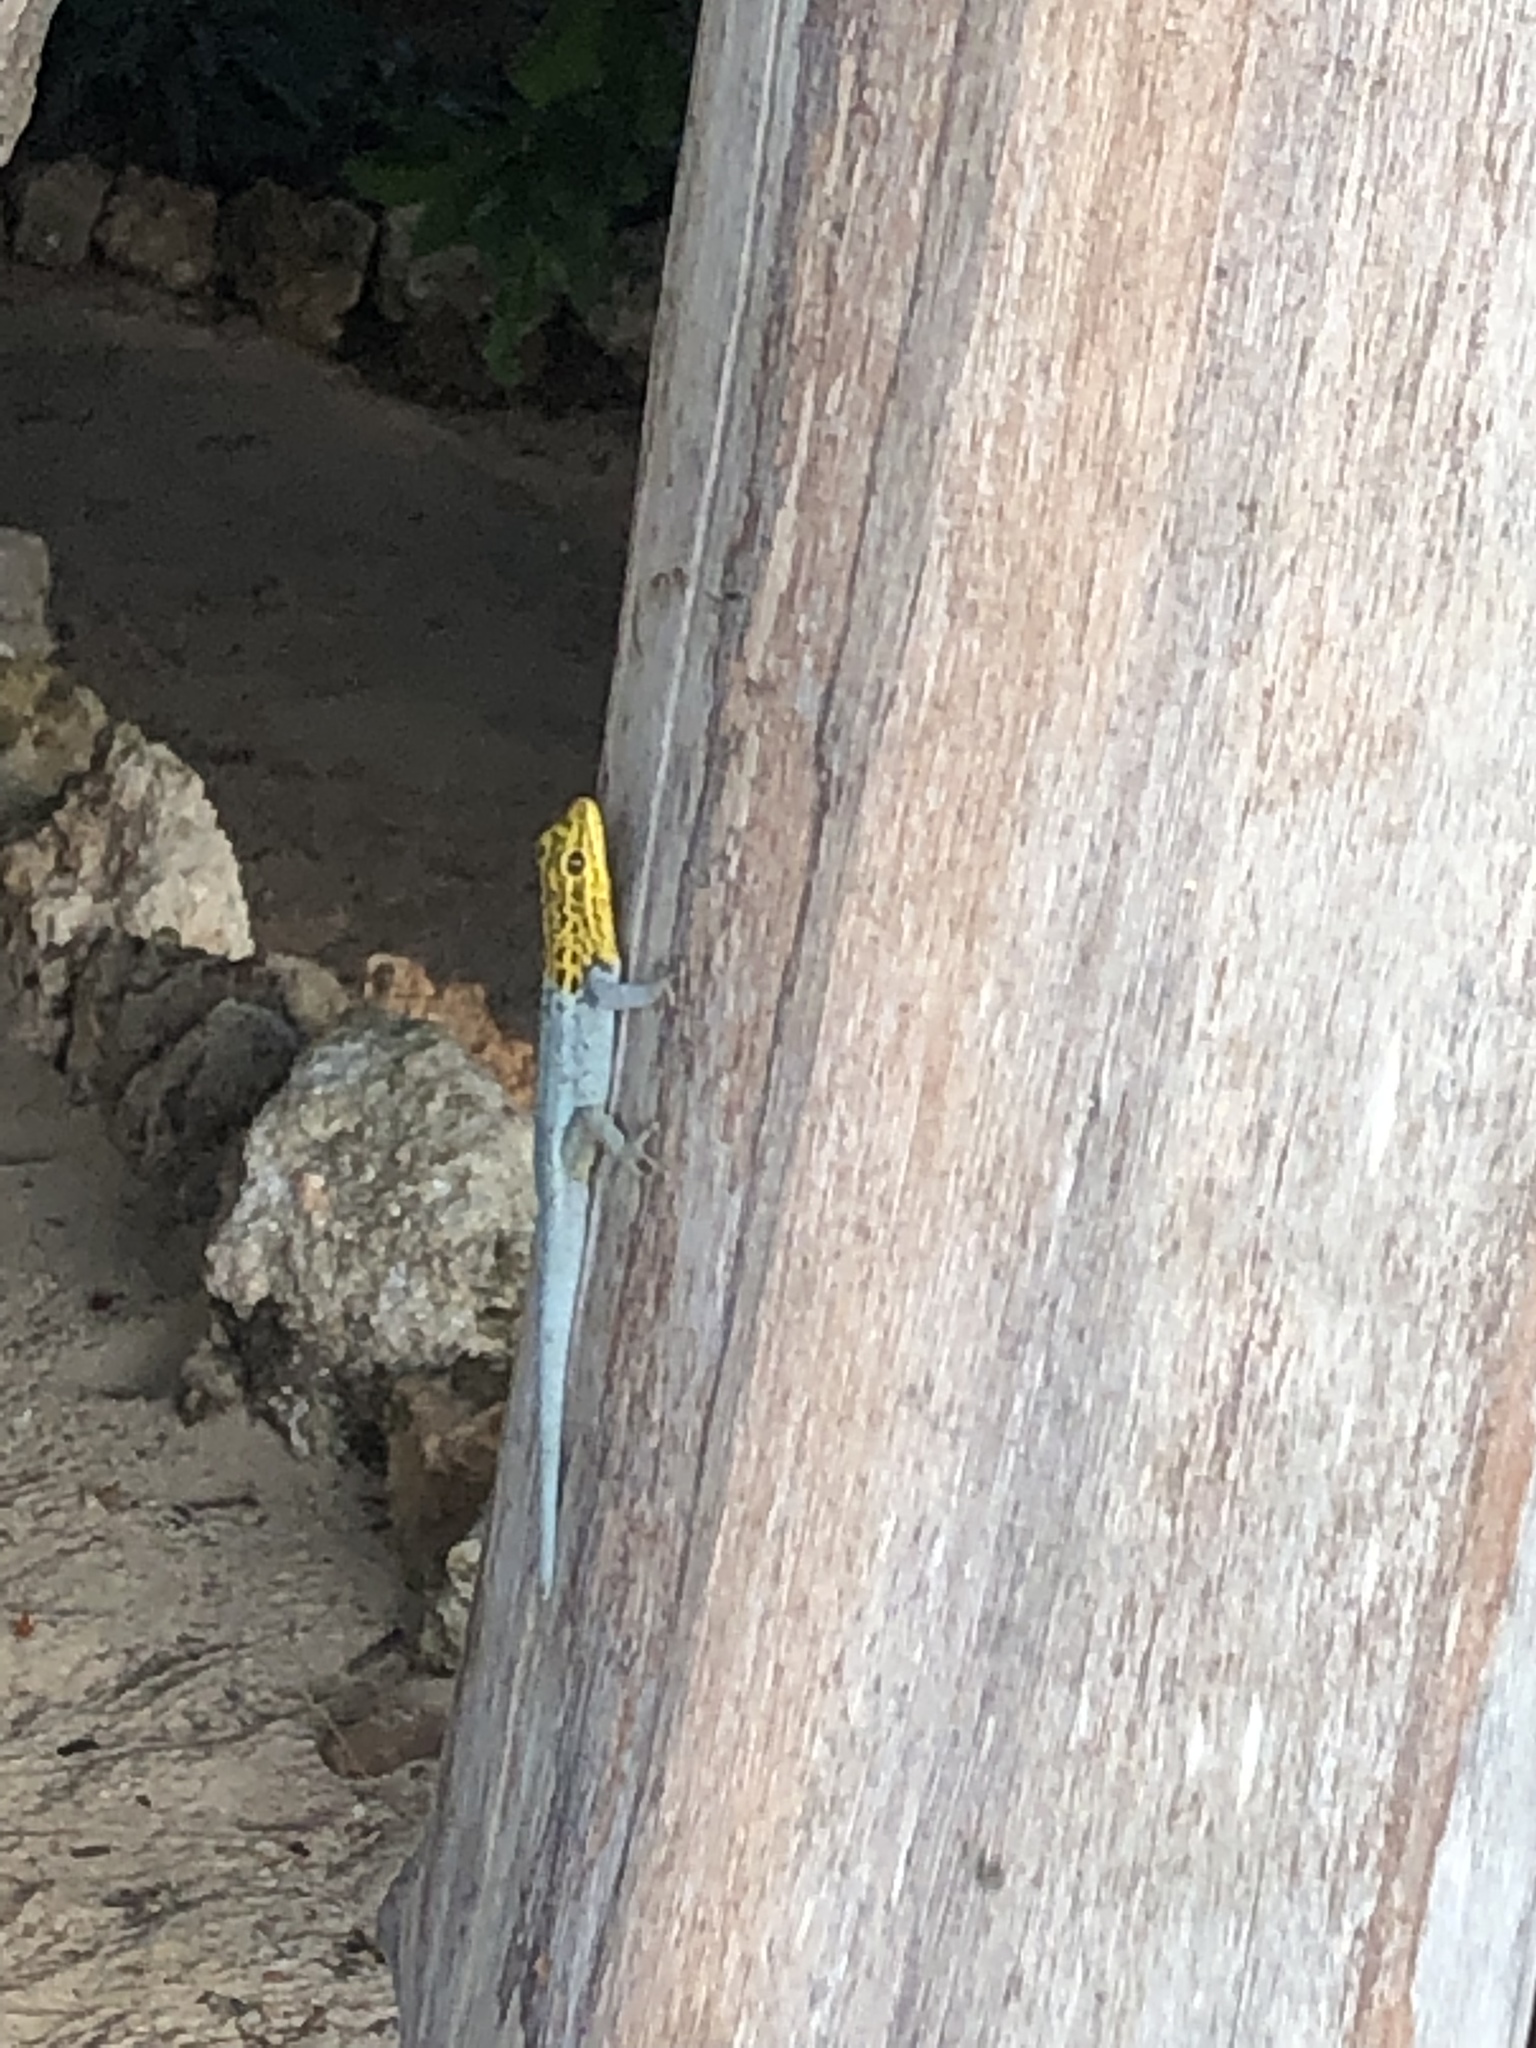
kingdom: Animalia
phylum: Chordata
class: Squamata
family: Gekkonidae
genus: Lygodactylus
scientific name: Lygodactylus picturatus
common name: Painted dwarf gecko
